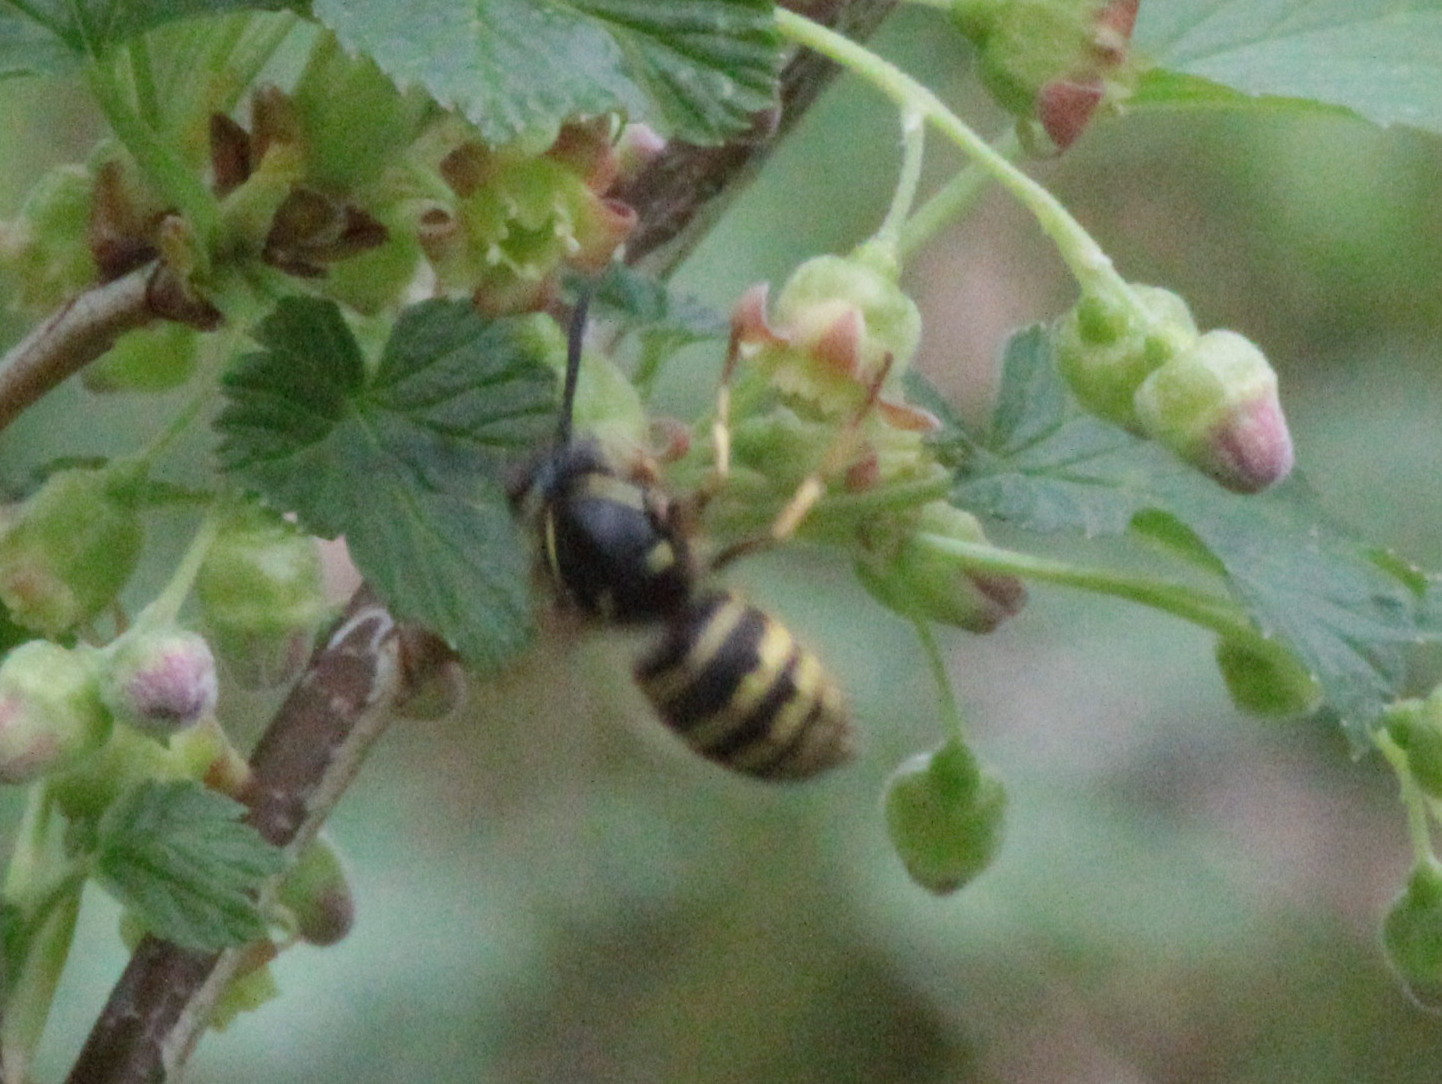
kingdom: Animalia
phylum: Arthropoda
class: Insecta
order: Hymenoptera
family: Vespidae
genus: Dolichovespula
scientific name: Dolichovespula norvegicoides
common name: Northern aerial yellowjacket
